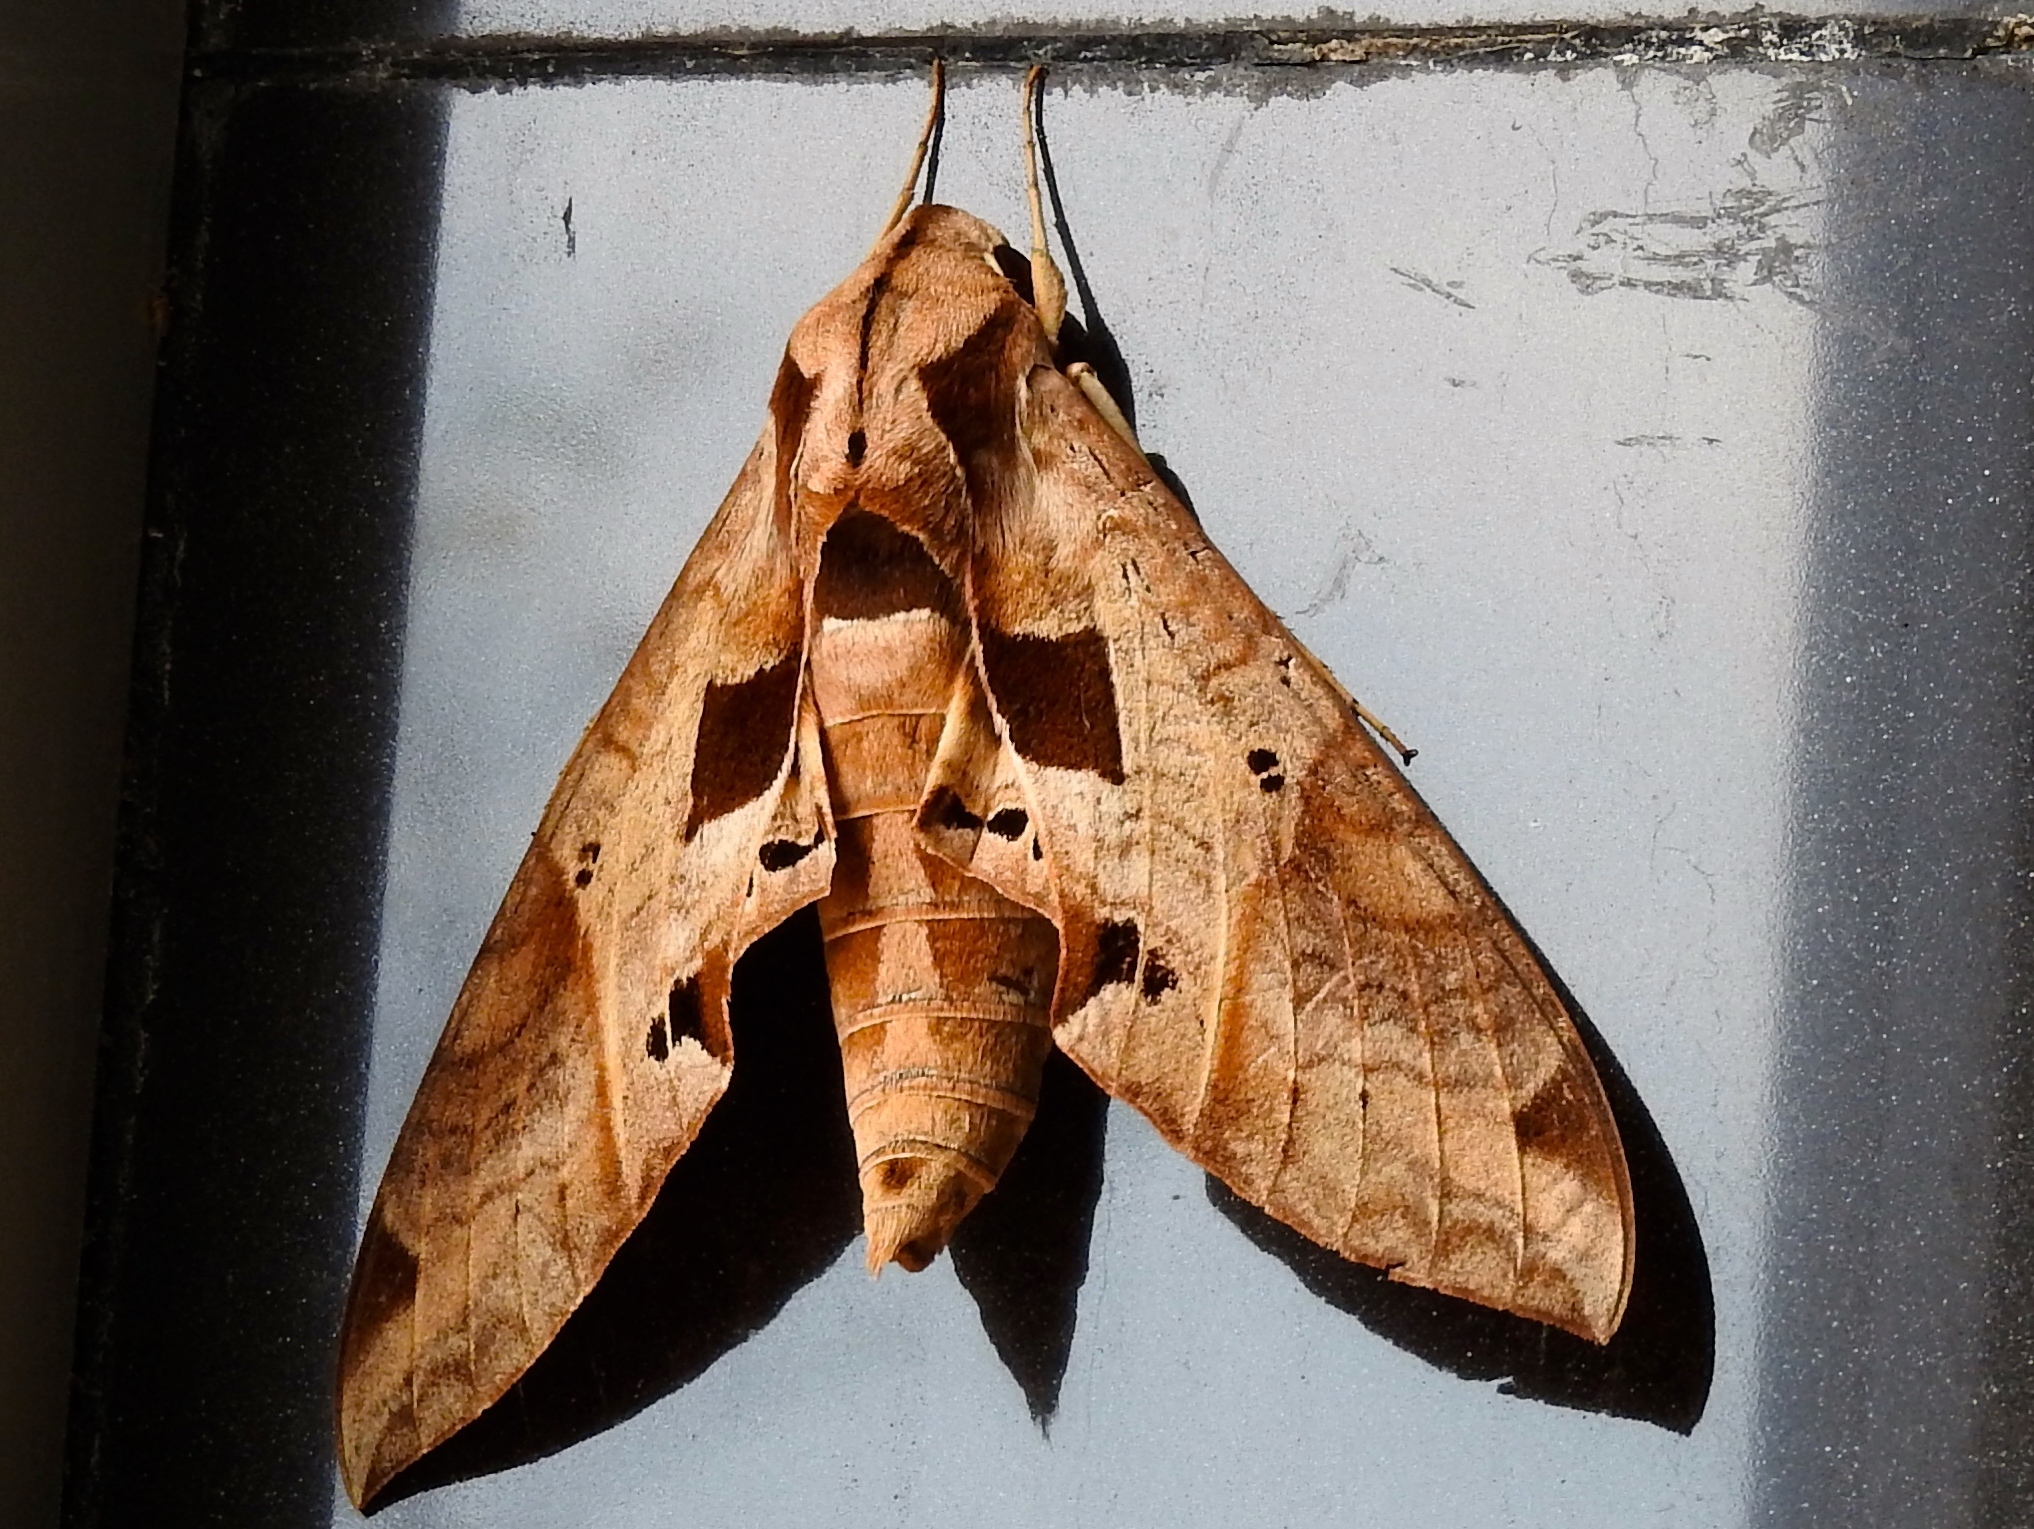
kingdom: Animalia
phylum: Arthropoda
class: Insecta
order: Lepidoptera
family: Sphingidae
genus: Eumorpha
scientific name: Eumorpha satellitia
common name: Satellite sphinx
